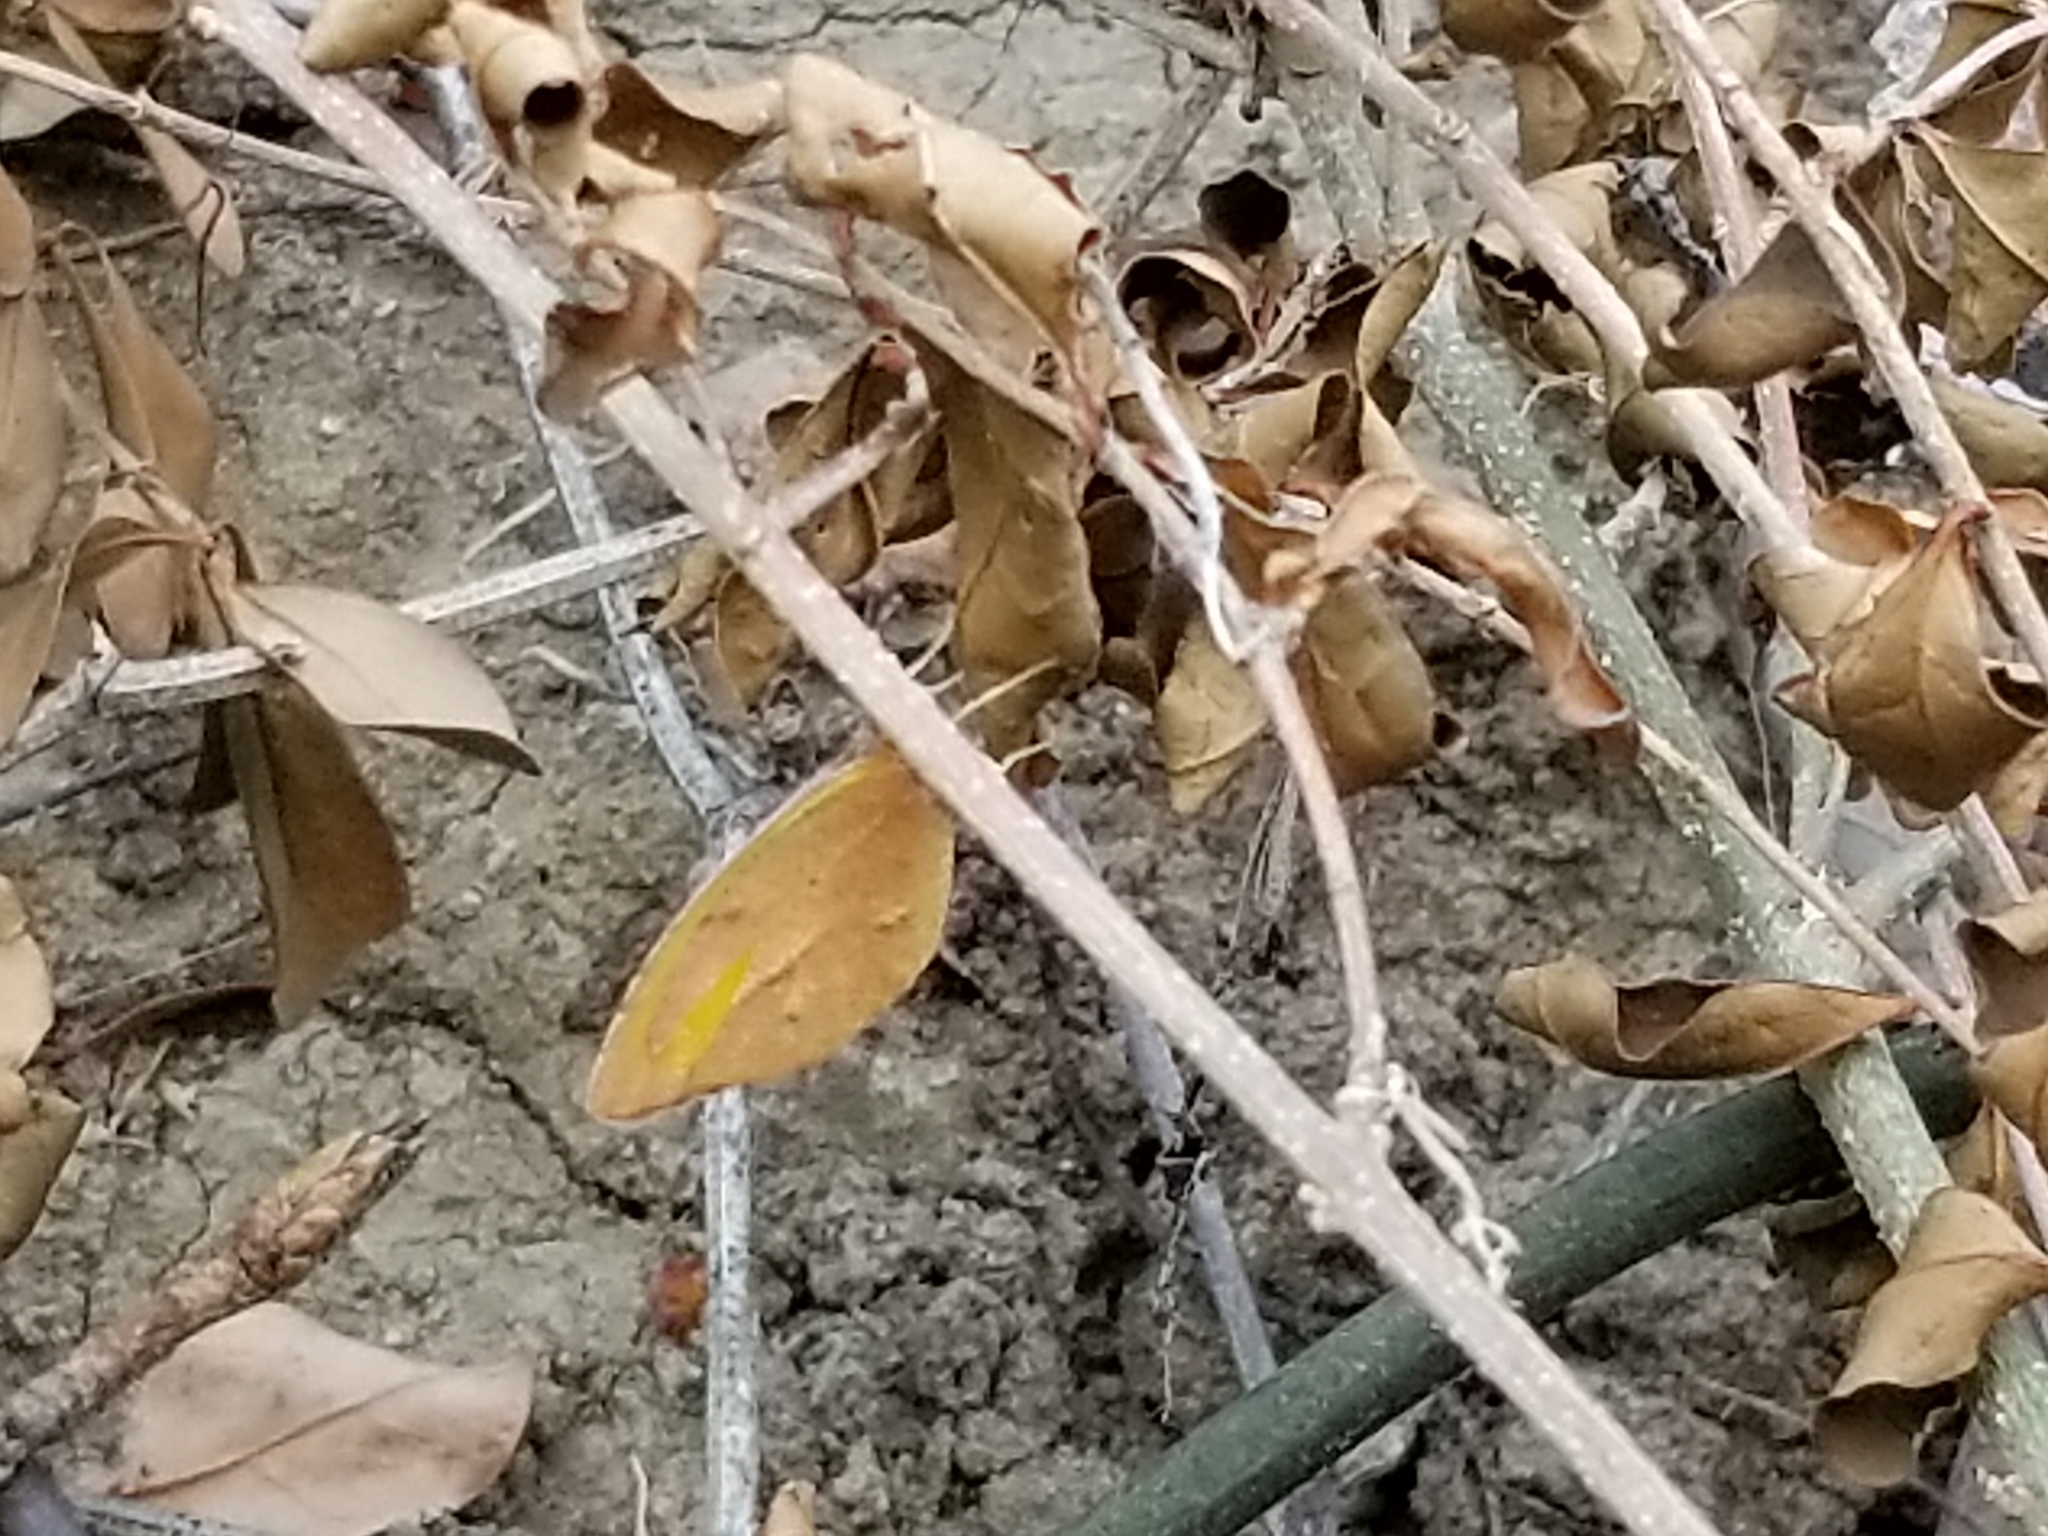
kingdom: Animalia
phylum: Arthropoda
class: Insecta
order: Lepidoptera
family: Pieridae
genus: Abaeis
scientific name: Abaeis nicippe
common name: Sleepy orange
